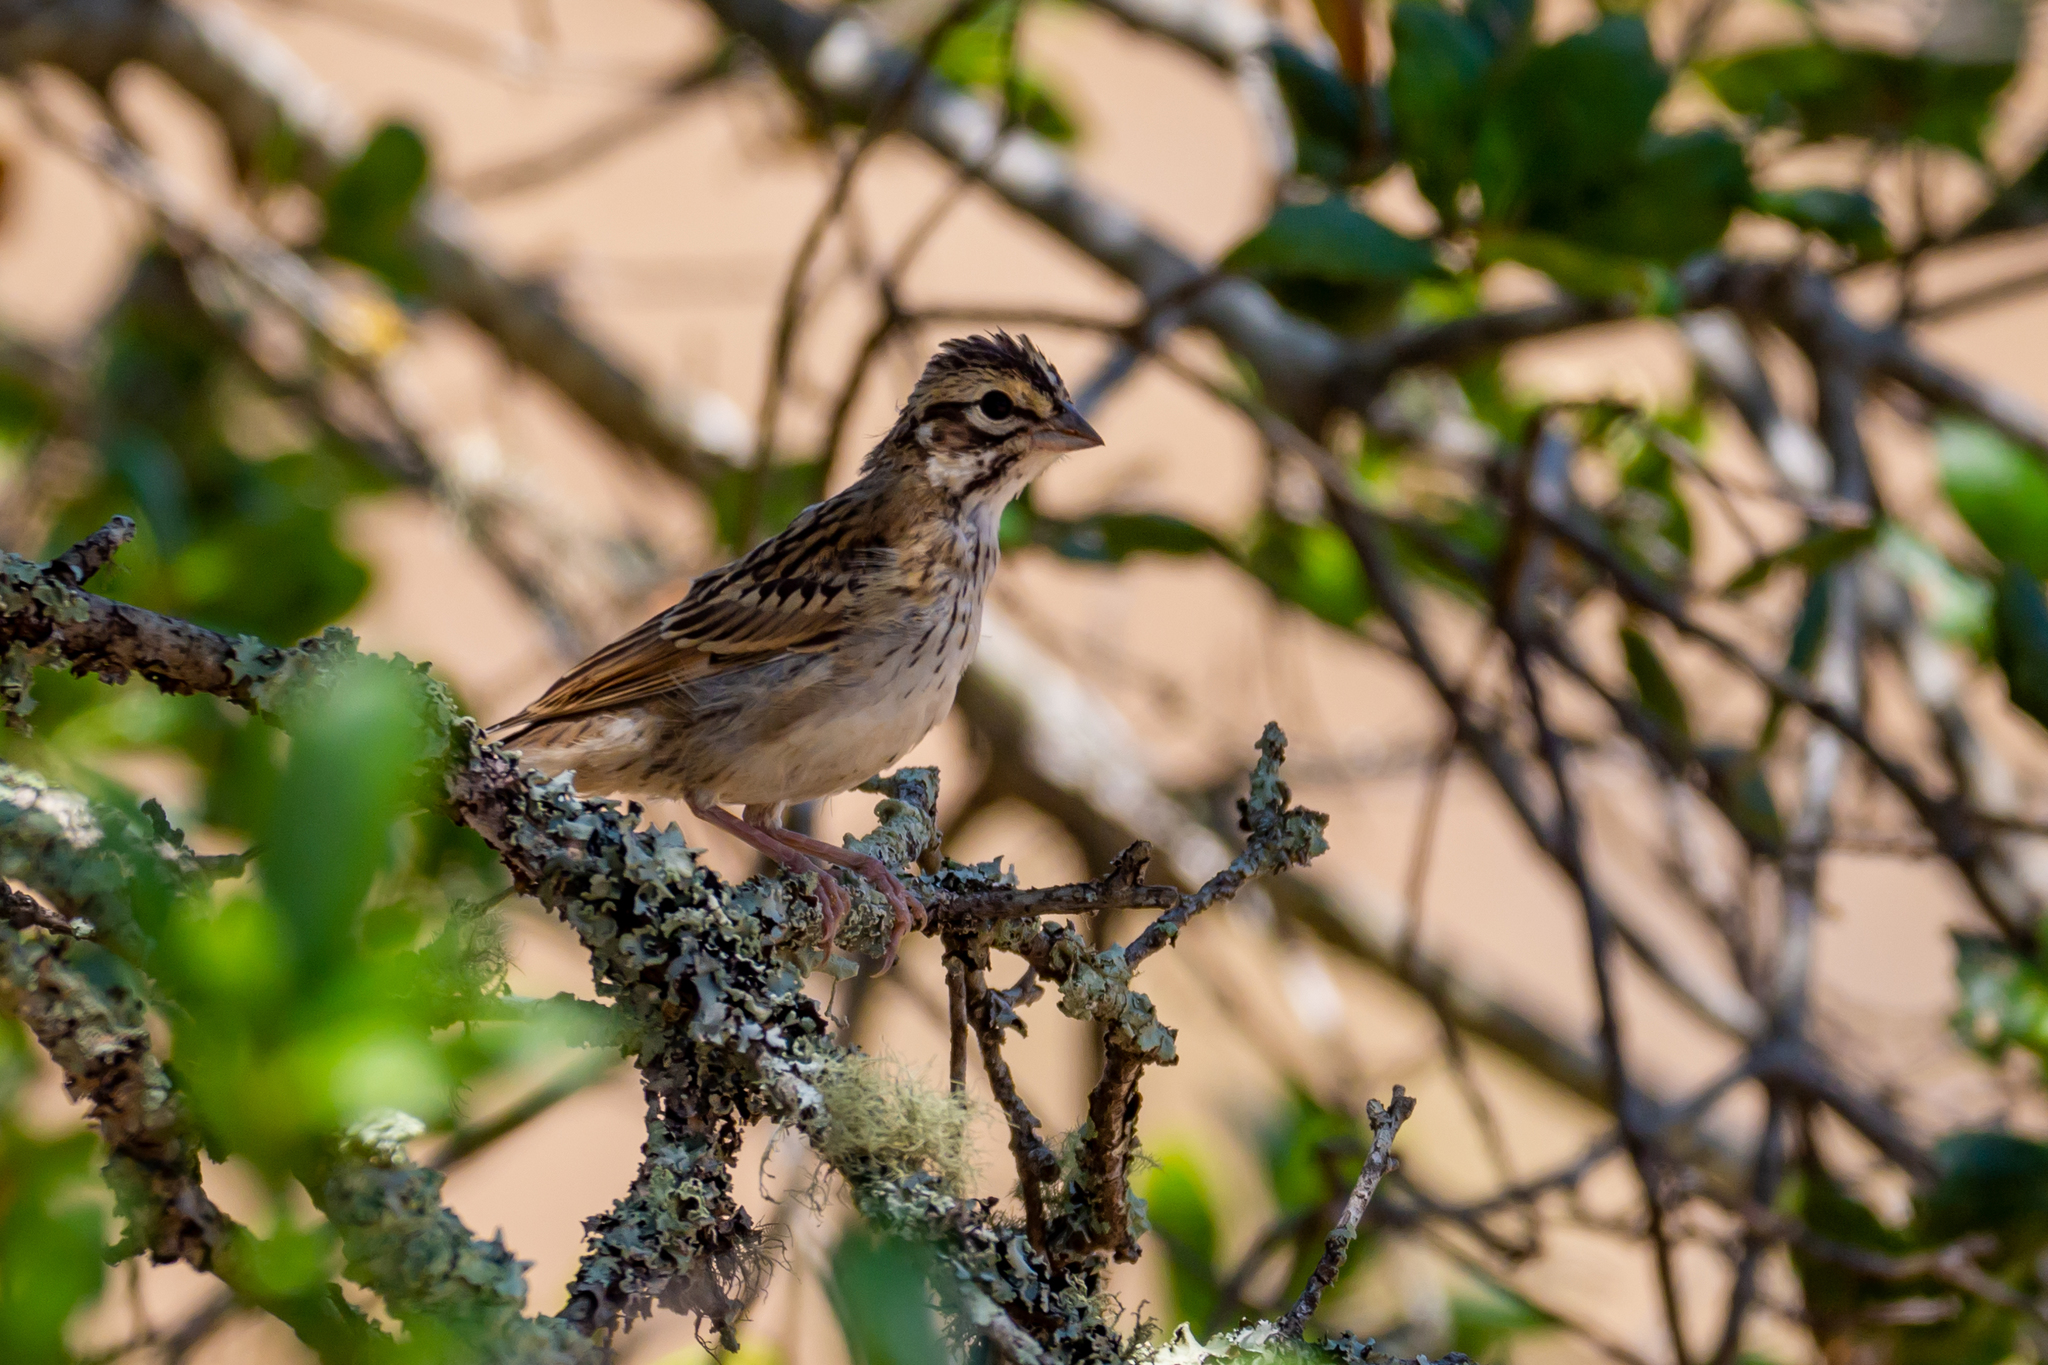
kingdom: Animalia
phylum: Chordata
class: Aves
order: Passeriformes
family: Passerellidae
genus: Chondestes
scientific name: Chondestes grammacus
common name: Lark sparrow
